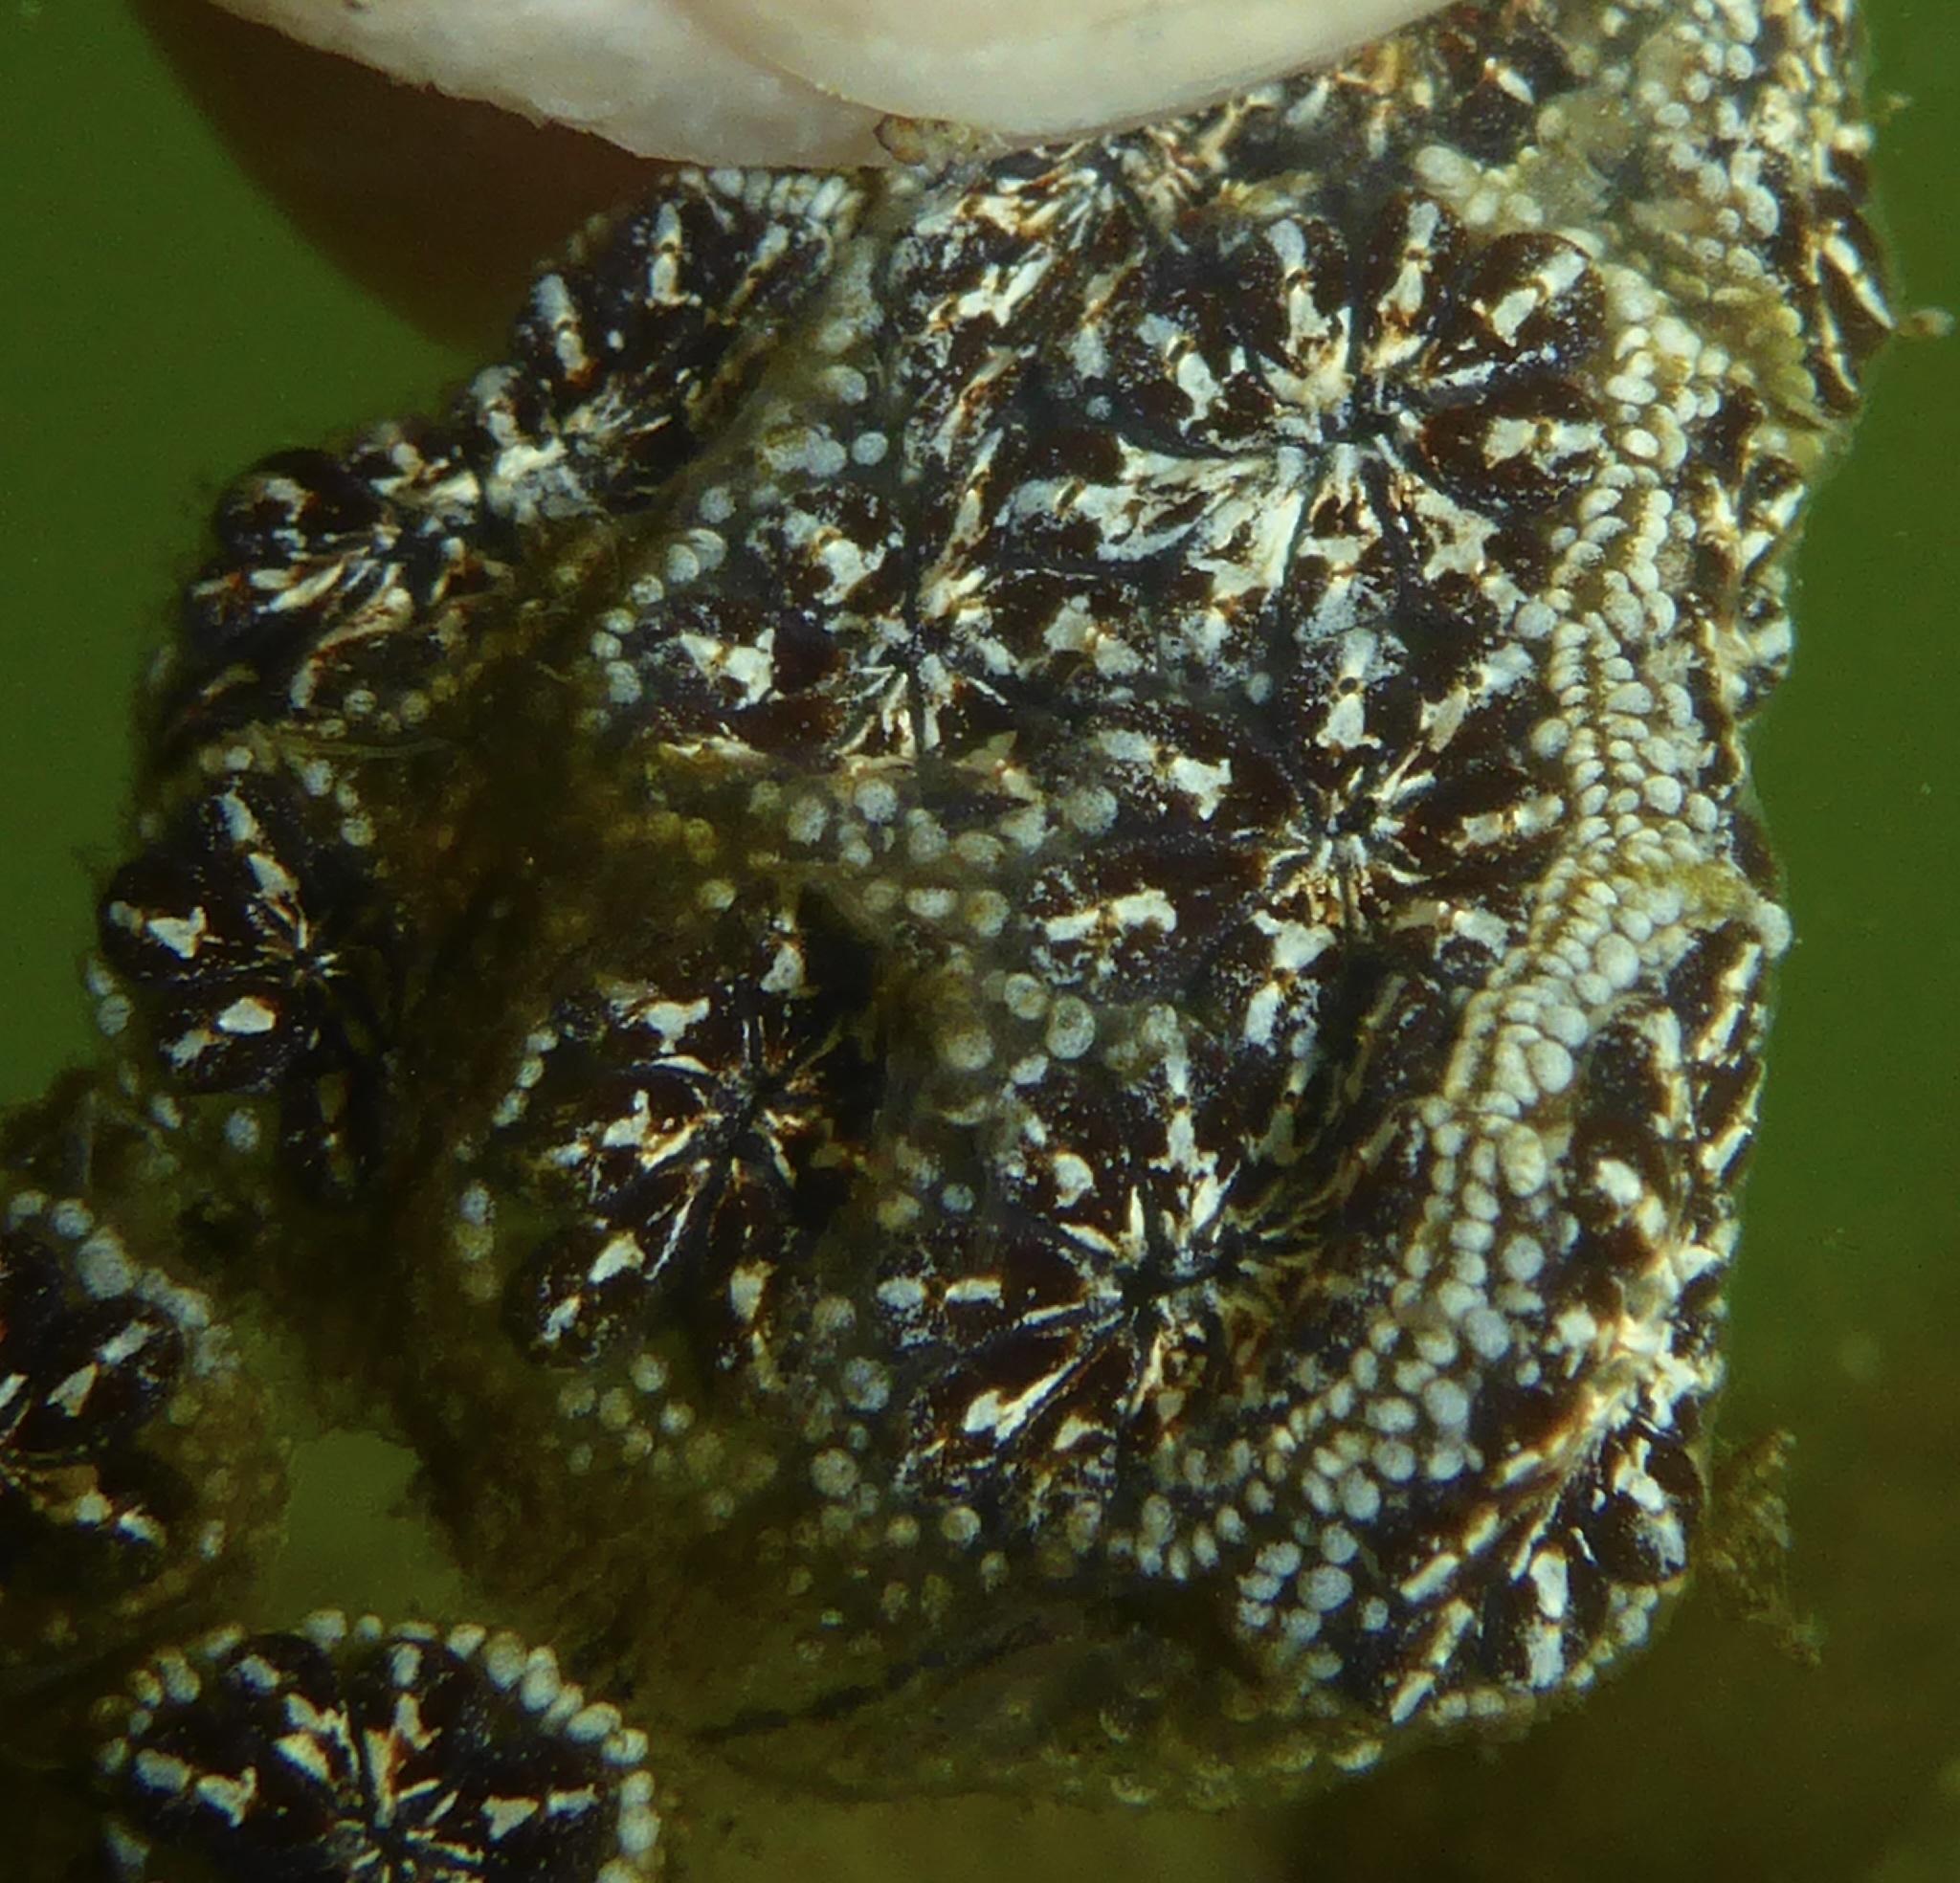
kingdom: Animalia
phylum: Chordata
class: Ascidiacea
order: Stolidobranchia
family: Styelidae
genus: Botryllus
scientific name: Botryllus schlosseri
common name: Golden star tunicate
